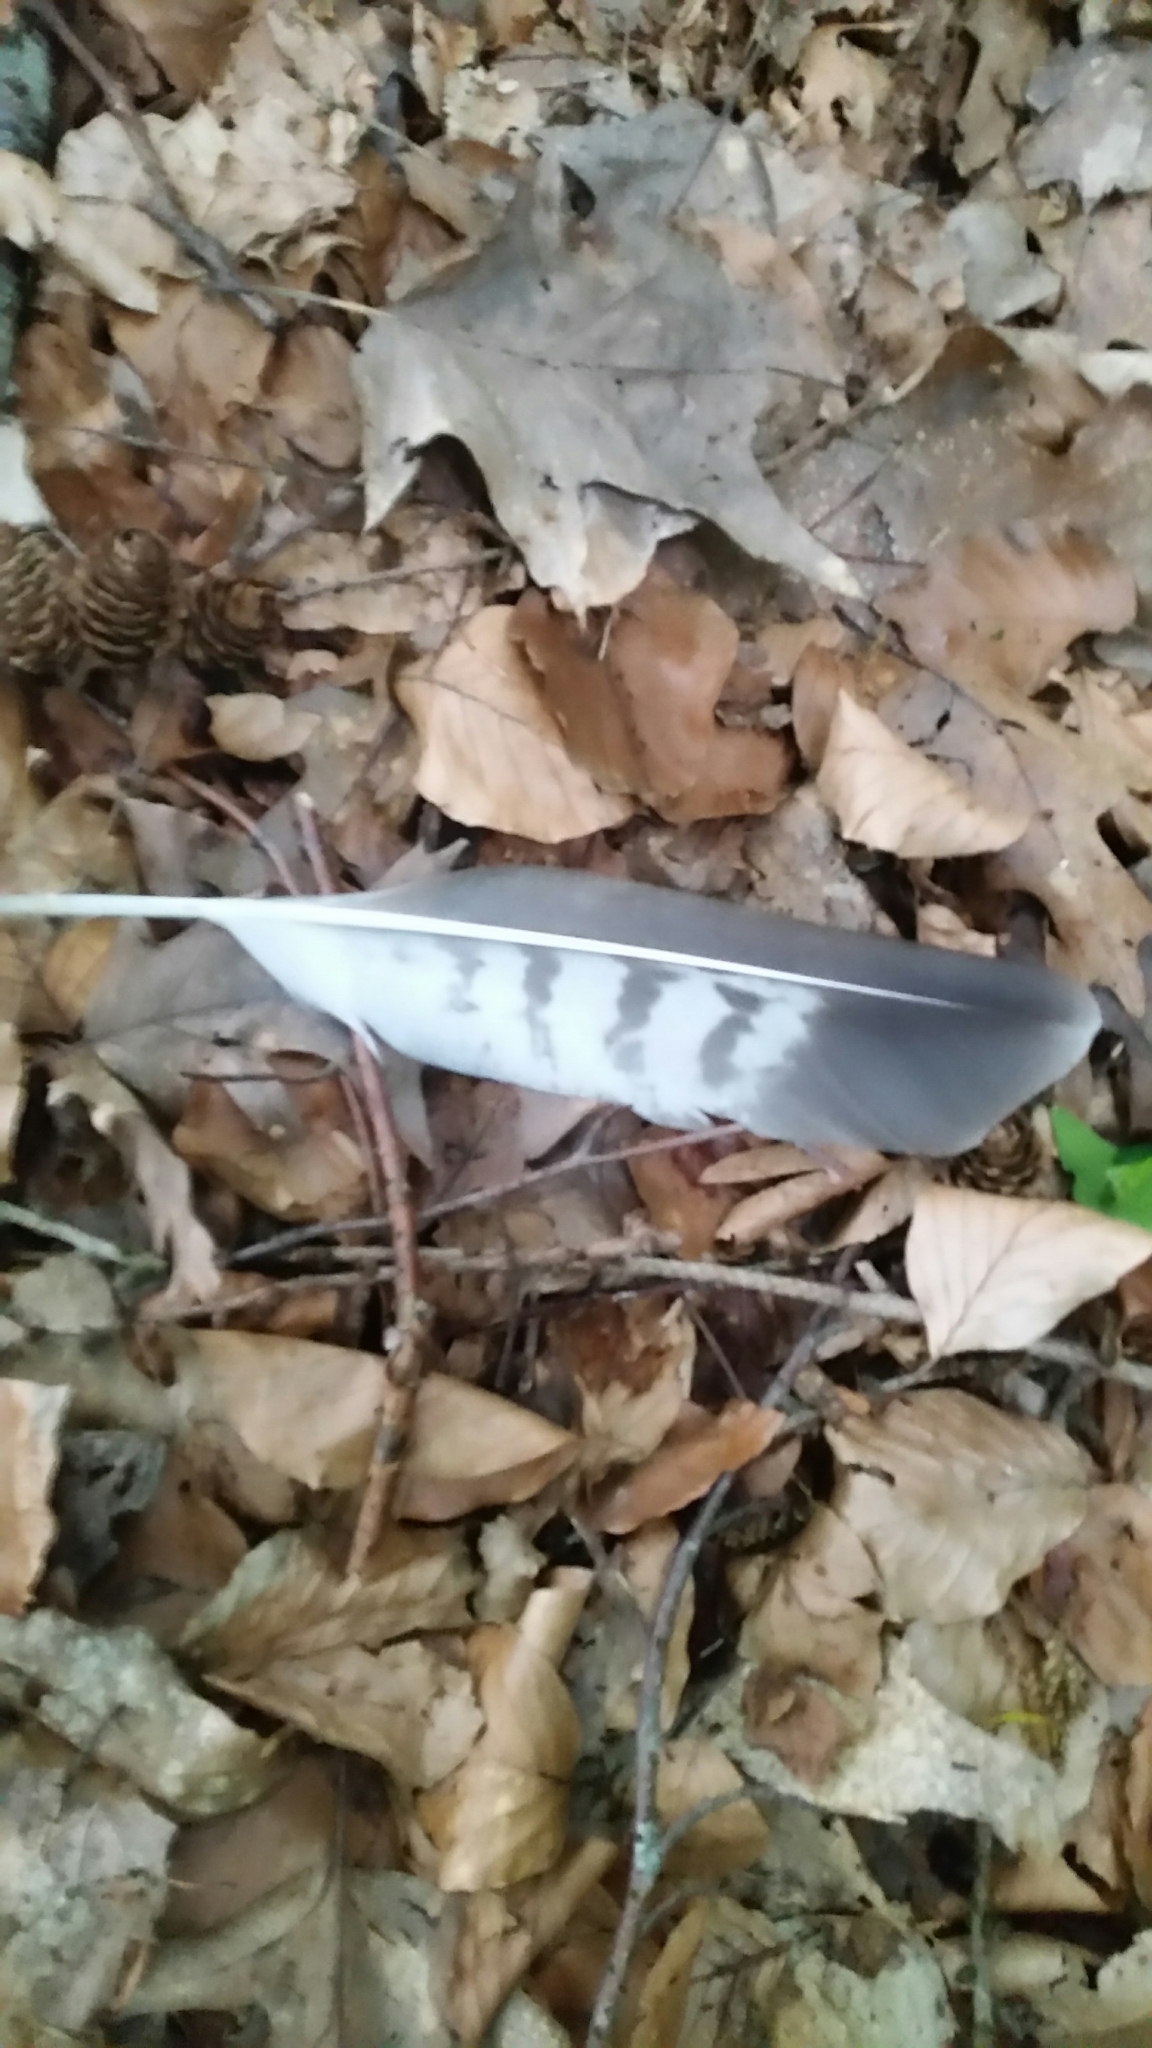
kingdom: Animalia
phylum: Chordata
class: Aves
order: Accipitriformes
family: Accipitridae
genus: Buteo
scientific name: Buteo buteo
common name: Common buzzard
